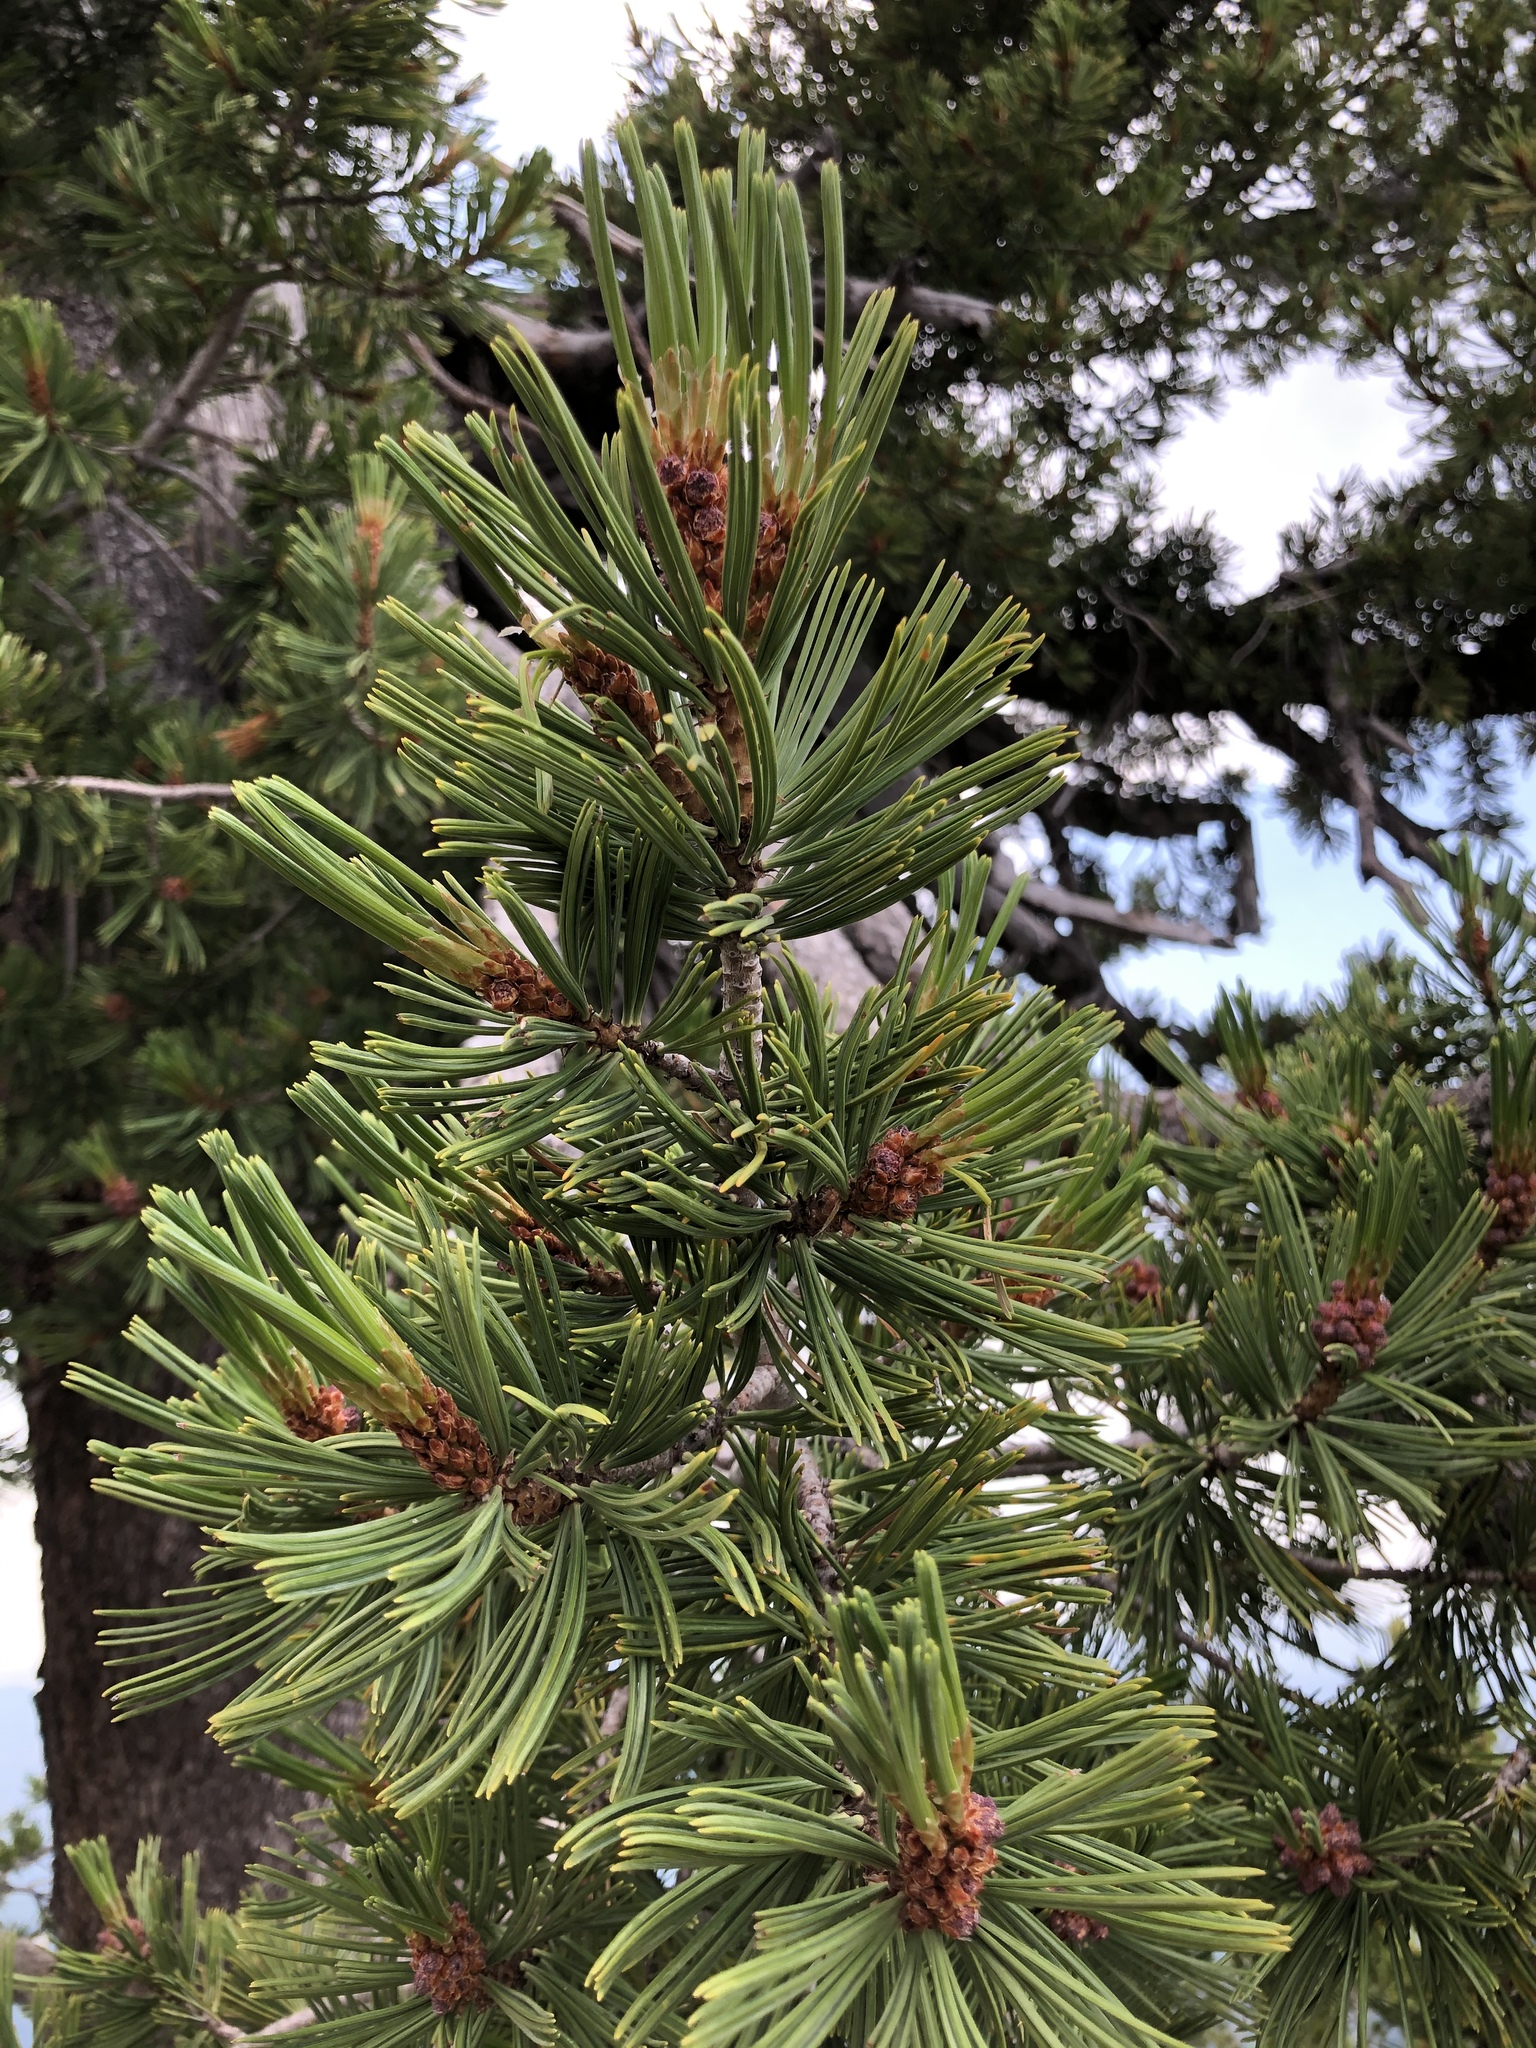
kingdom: Plantae
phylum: Tracheophyta
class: Pinopsida
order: Pinales
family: Pinaceae
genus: Pinus
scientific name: Pinus albicaulis
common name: Whitebark pine
